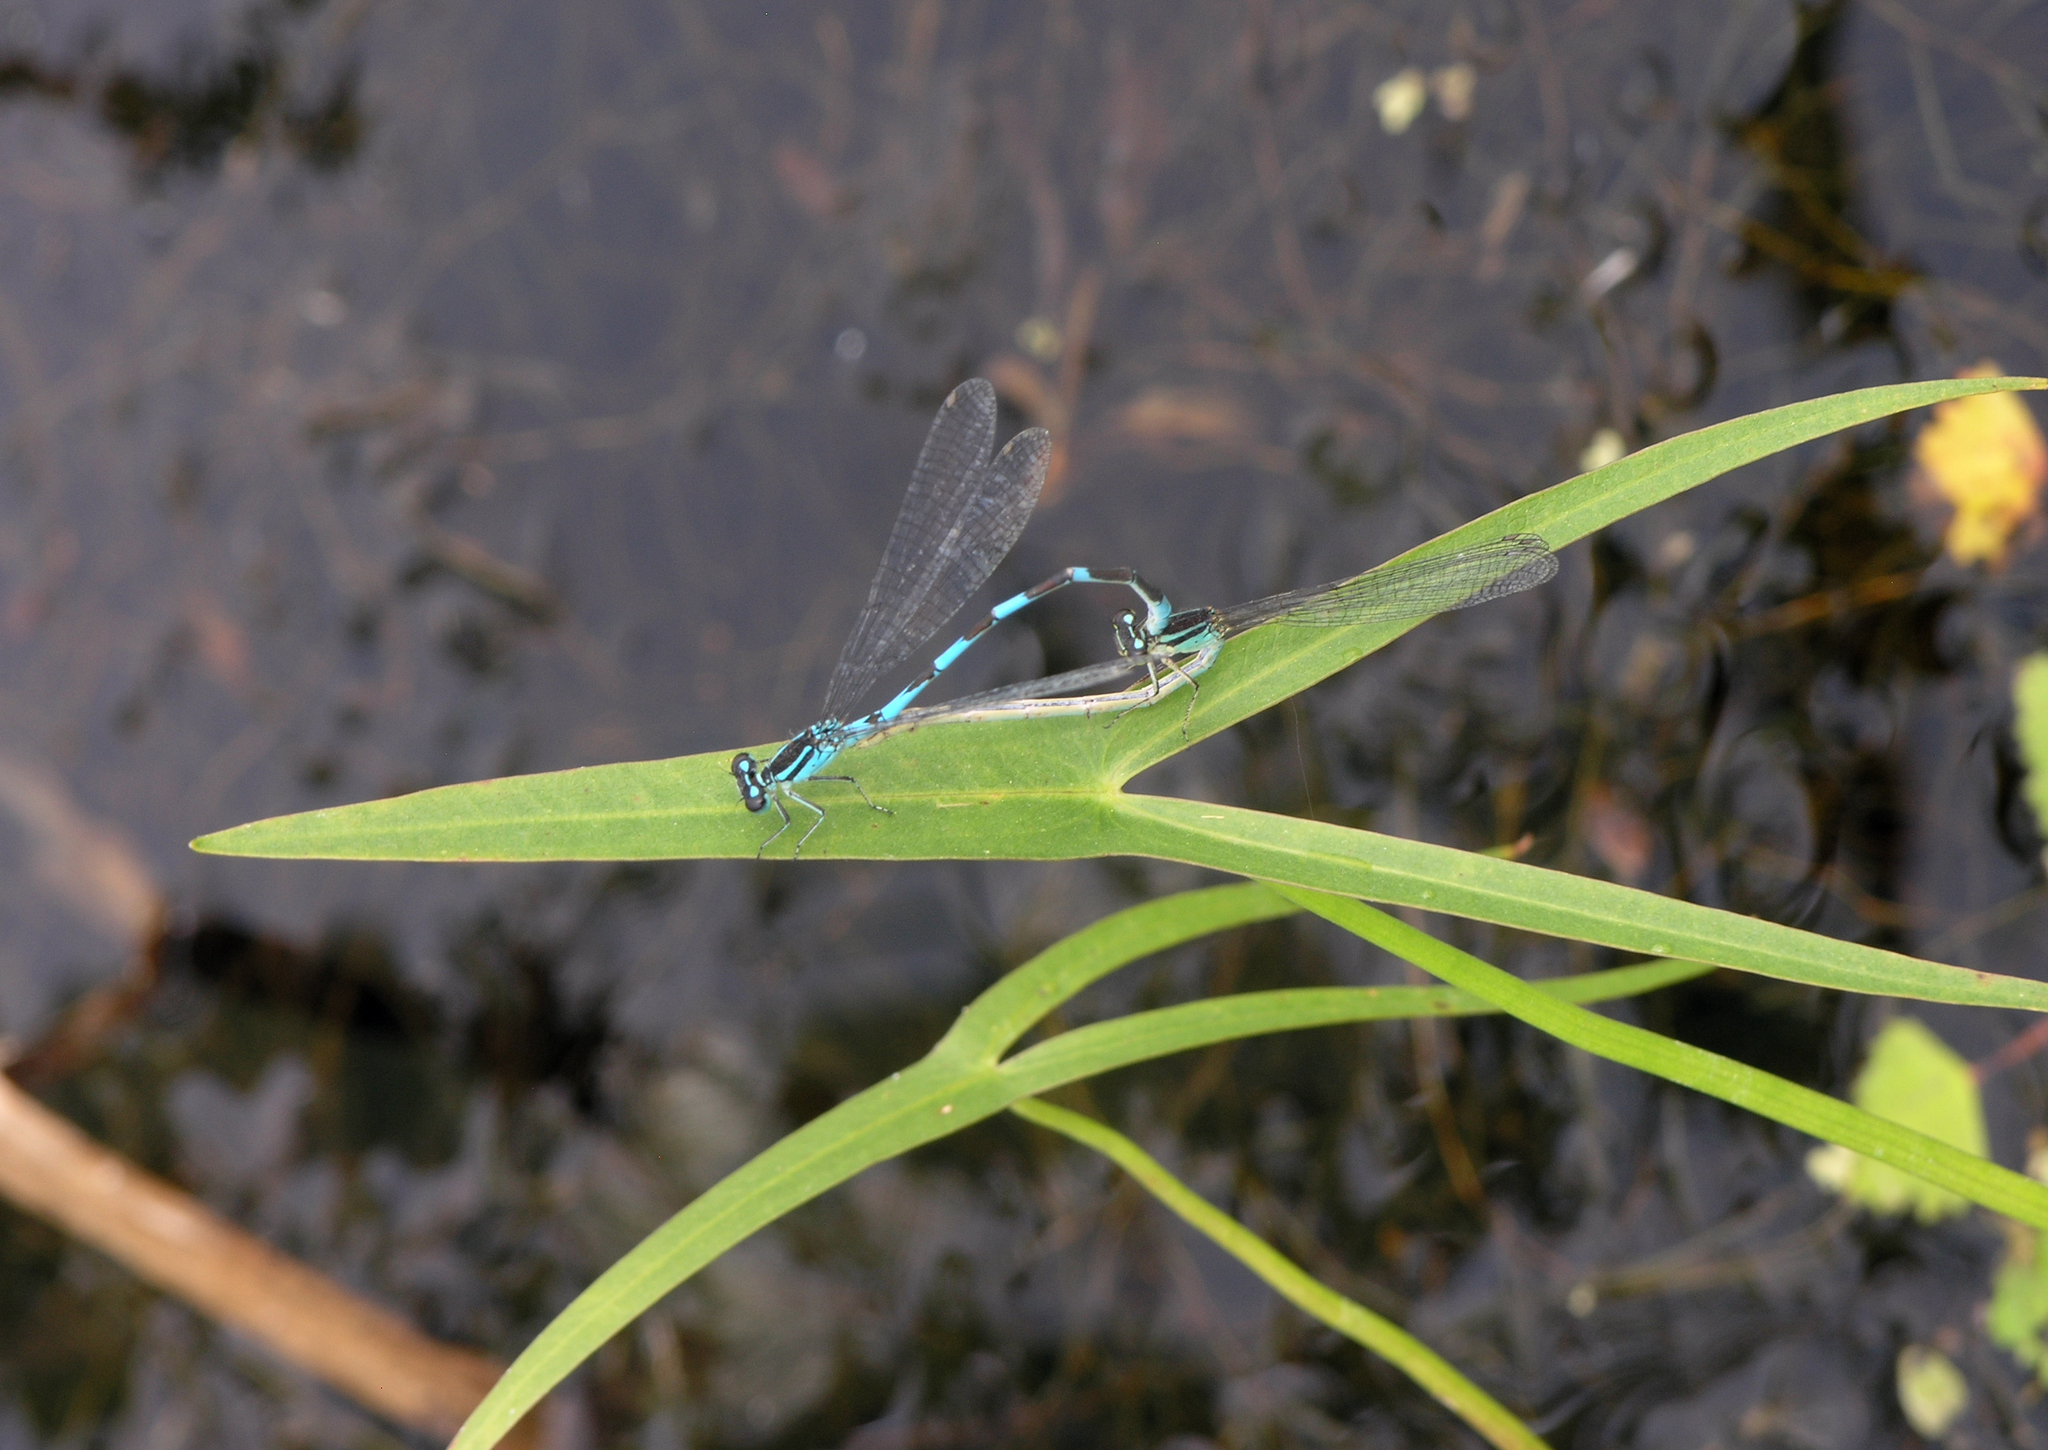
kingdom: Plantae
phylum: Tracheophyta
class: Liliopsida
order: Alismatales
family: Alismataceae
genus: Sagittaria
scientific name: Sagittaria trifolia
